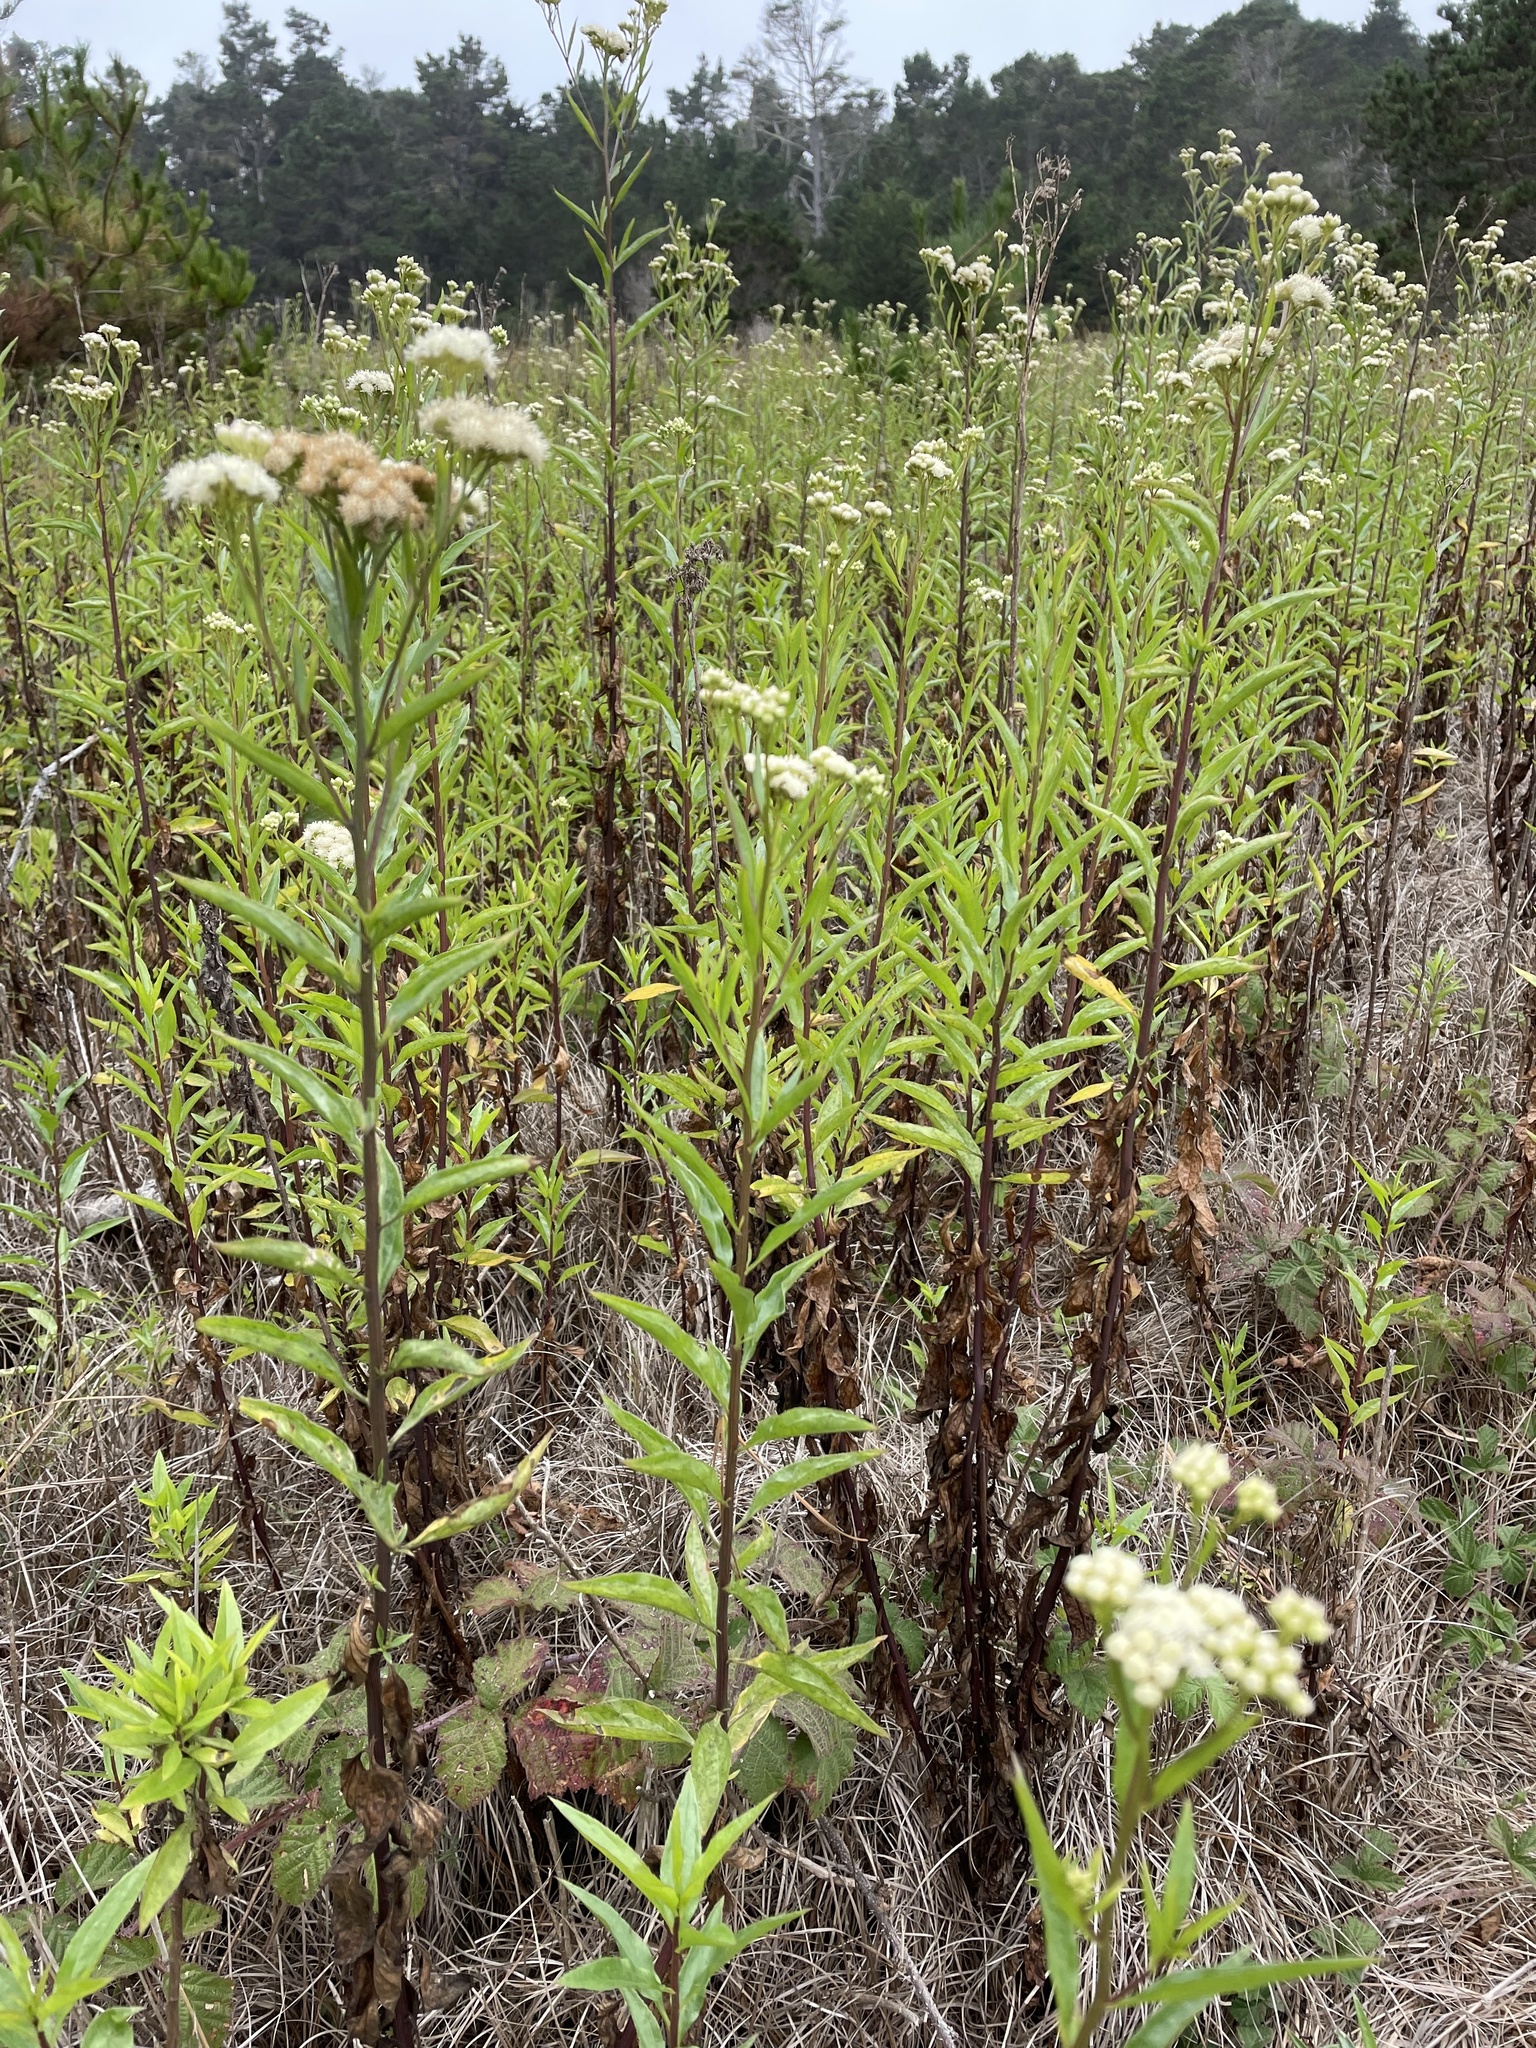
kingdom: Plantae
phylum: Tracheophyta
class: Magnoliopsida
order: Asterales
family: Asteraceae
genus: Baccharis
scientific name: Baccharis glutinosa
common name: Saltmarsh baccharis
